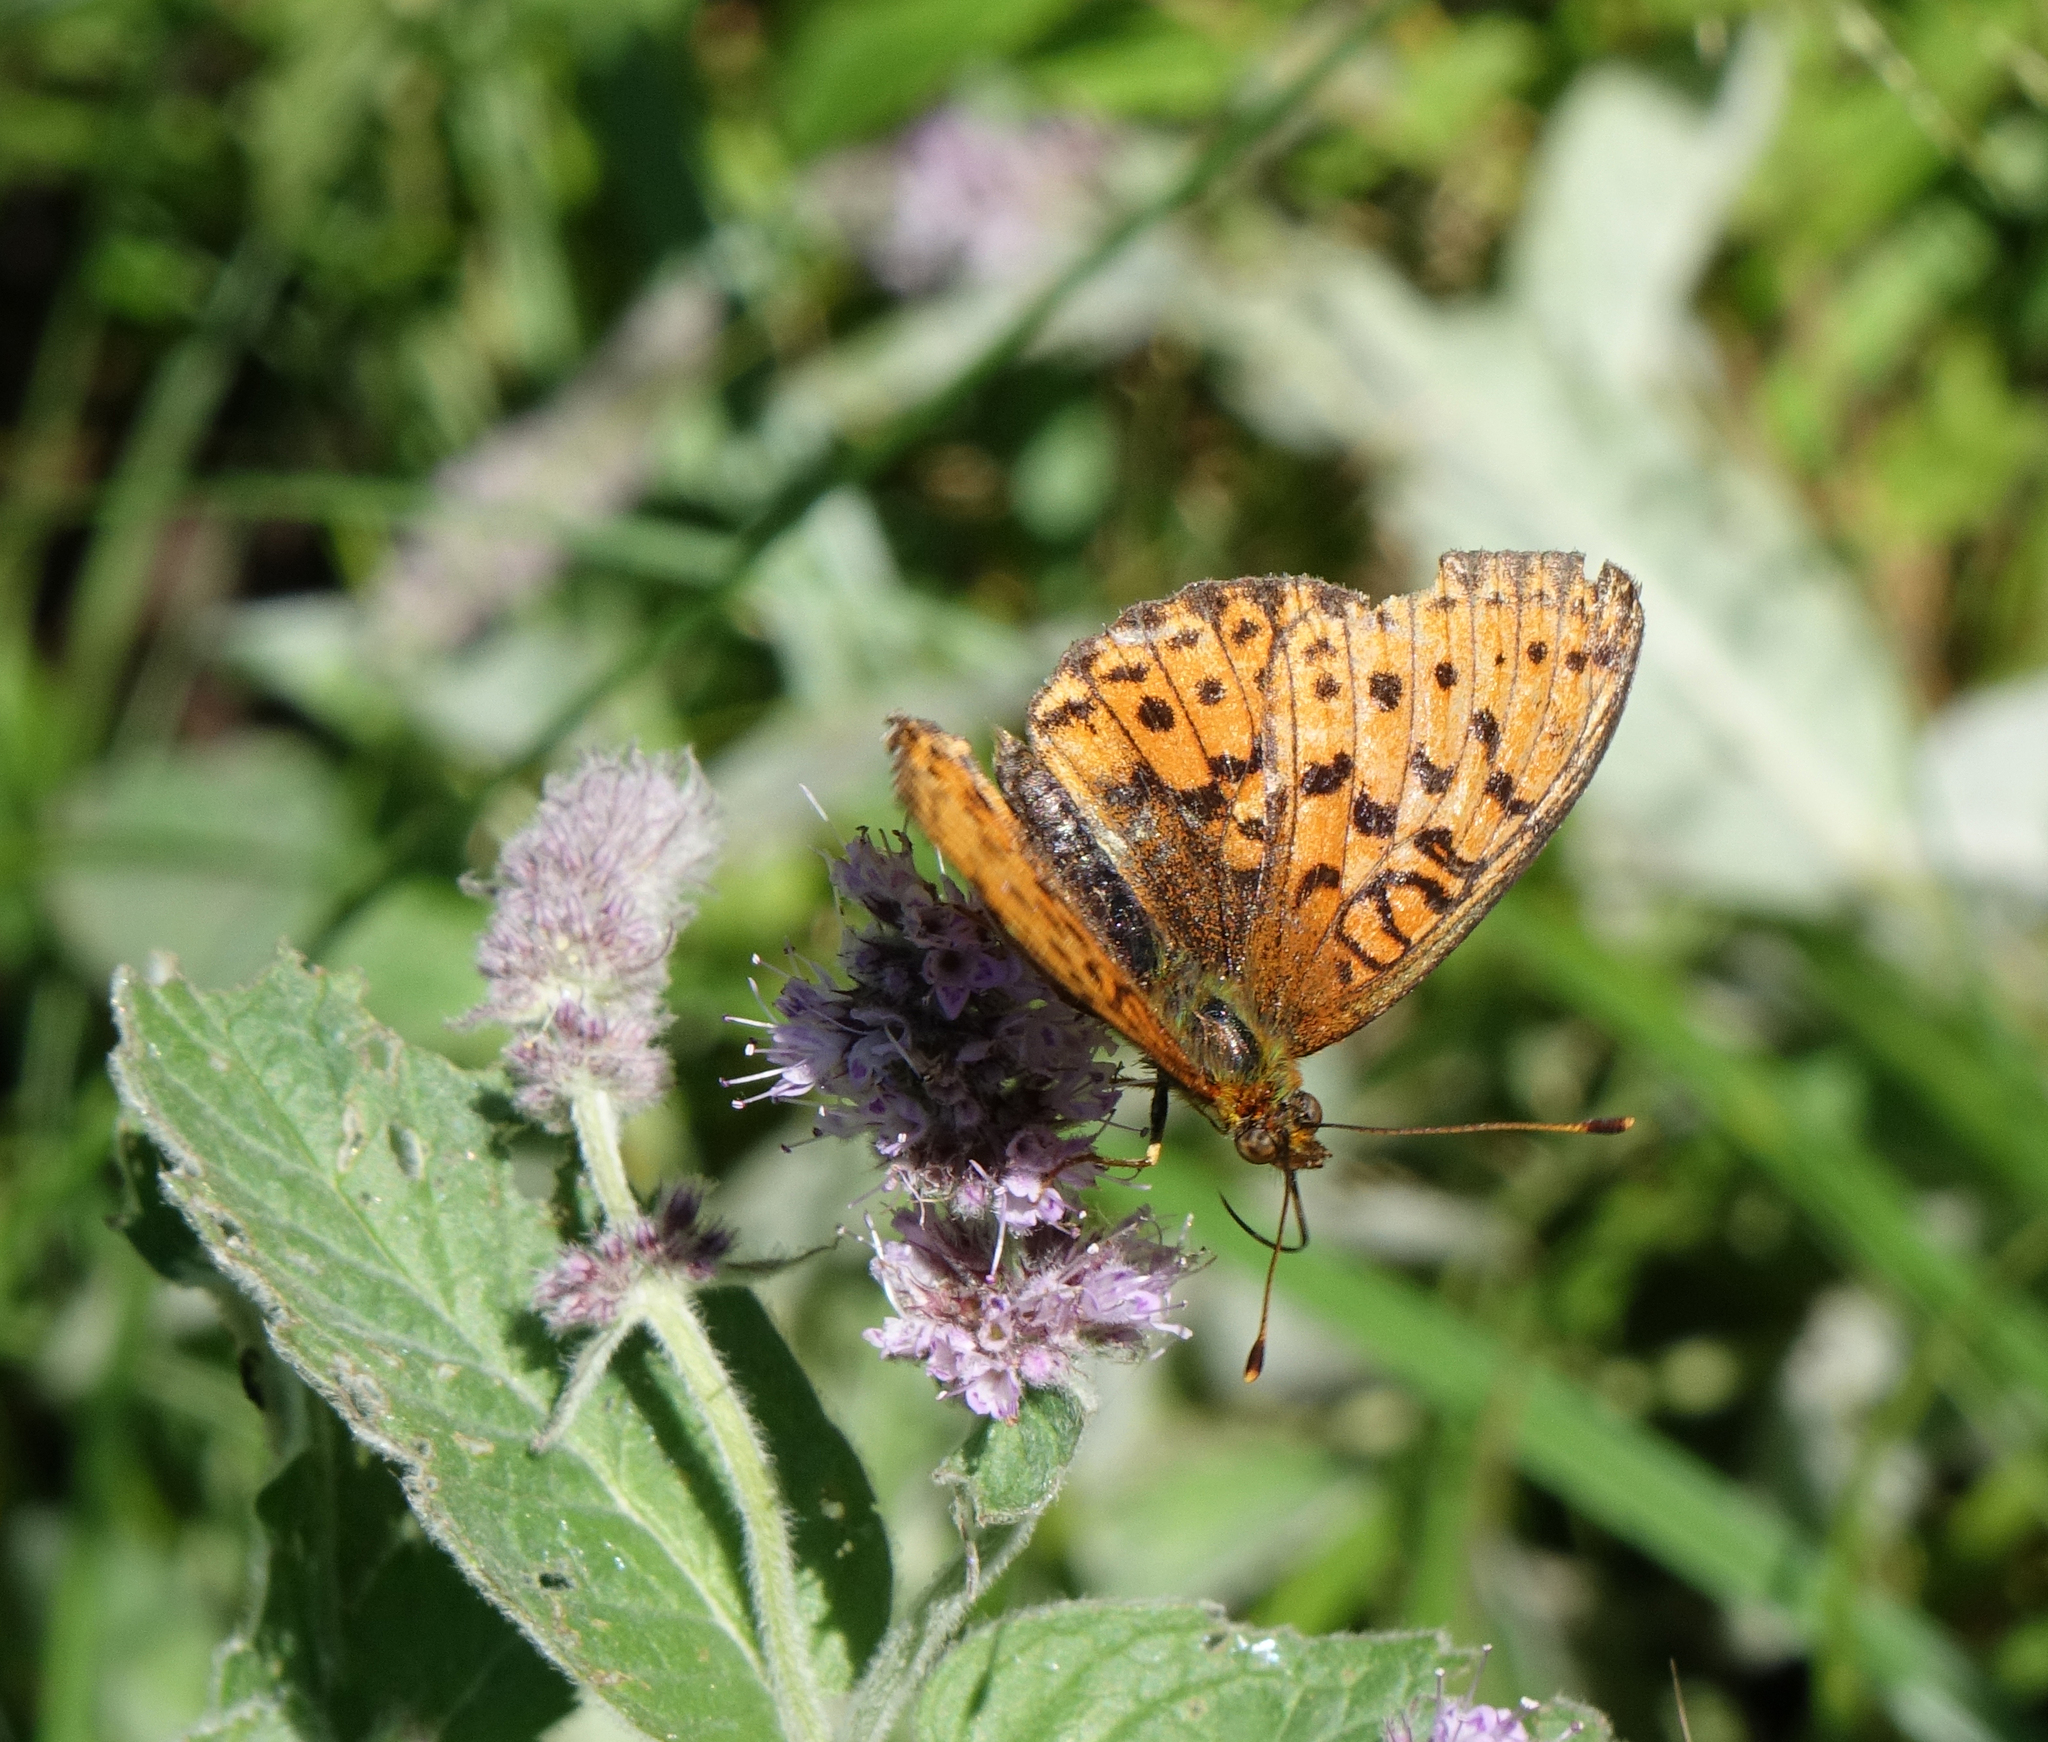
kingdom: Animalia
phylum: Arthropoda
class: Insecta
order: Lepidoptera
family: Nymphalidae
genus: Brenthis
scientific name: Brenthis ino
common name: Lesser marbled fritillary
